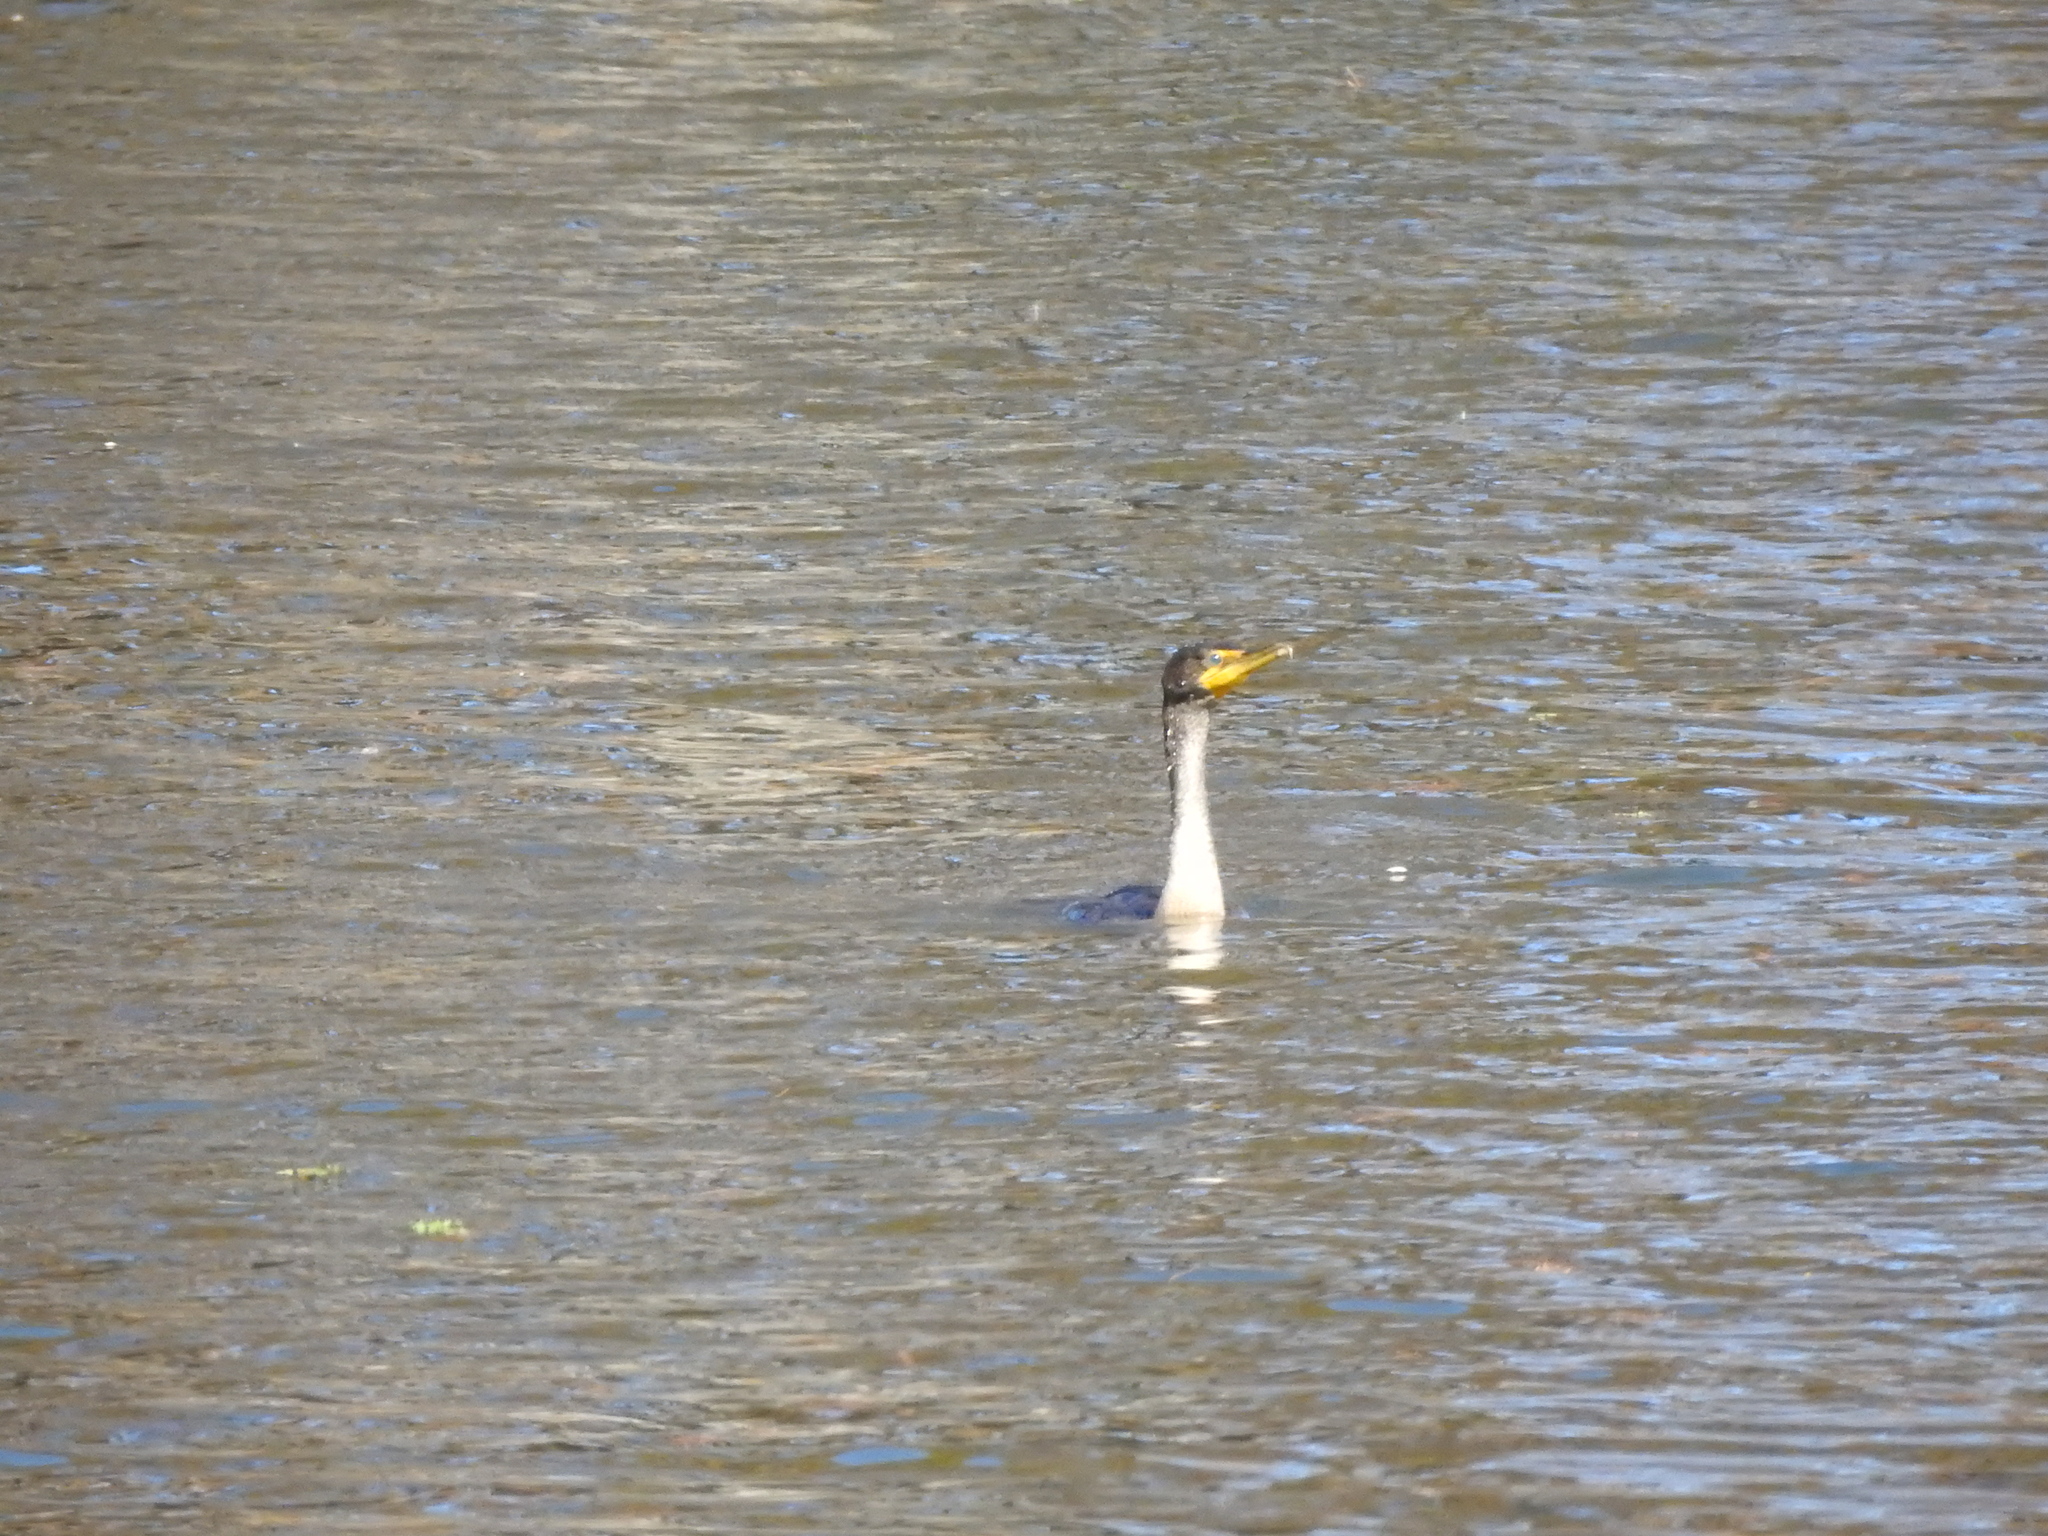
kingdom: Animalia
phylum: Chordata
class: Aves
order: Suliformes
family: Phalacrocoracidae
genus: Phalacrocorax
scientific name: Phalacrocorax auritus
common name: Double-crested cormorant
